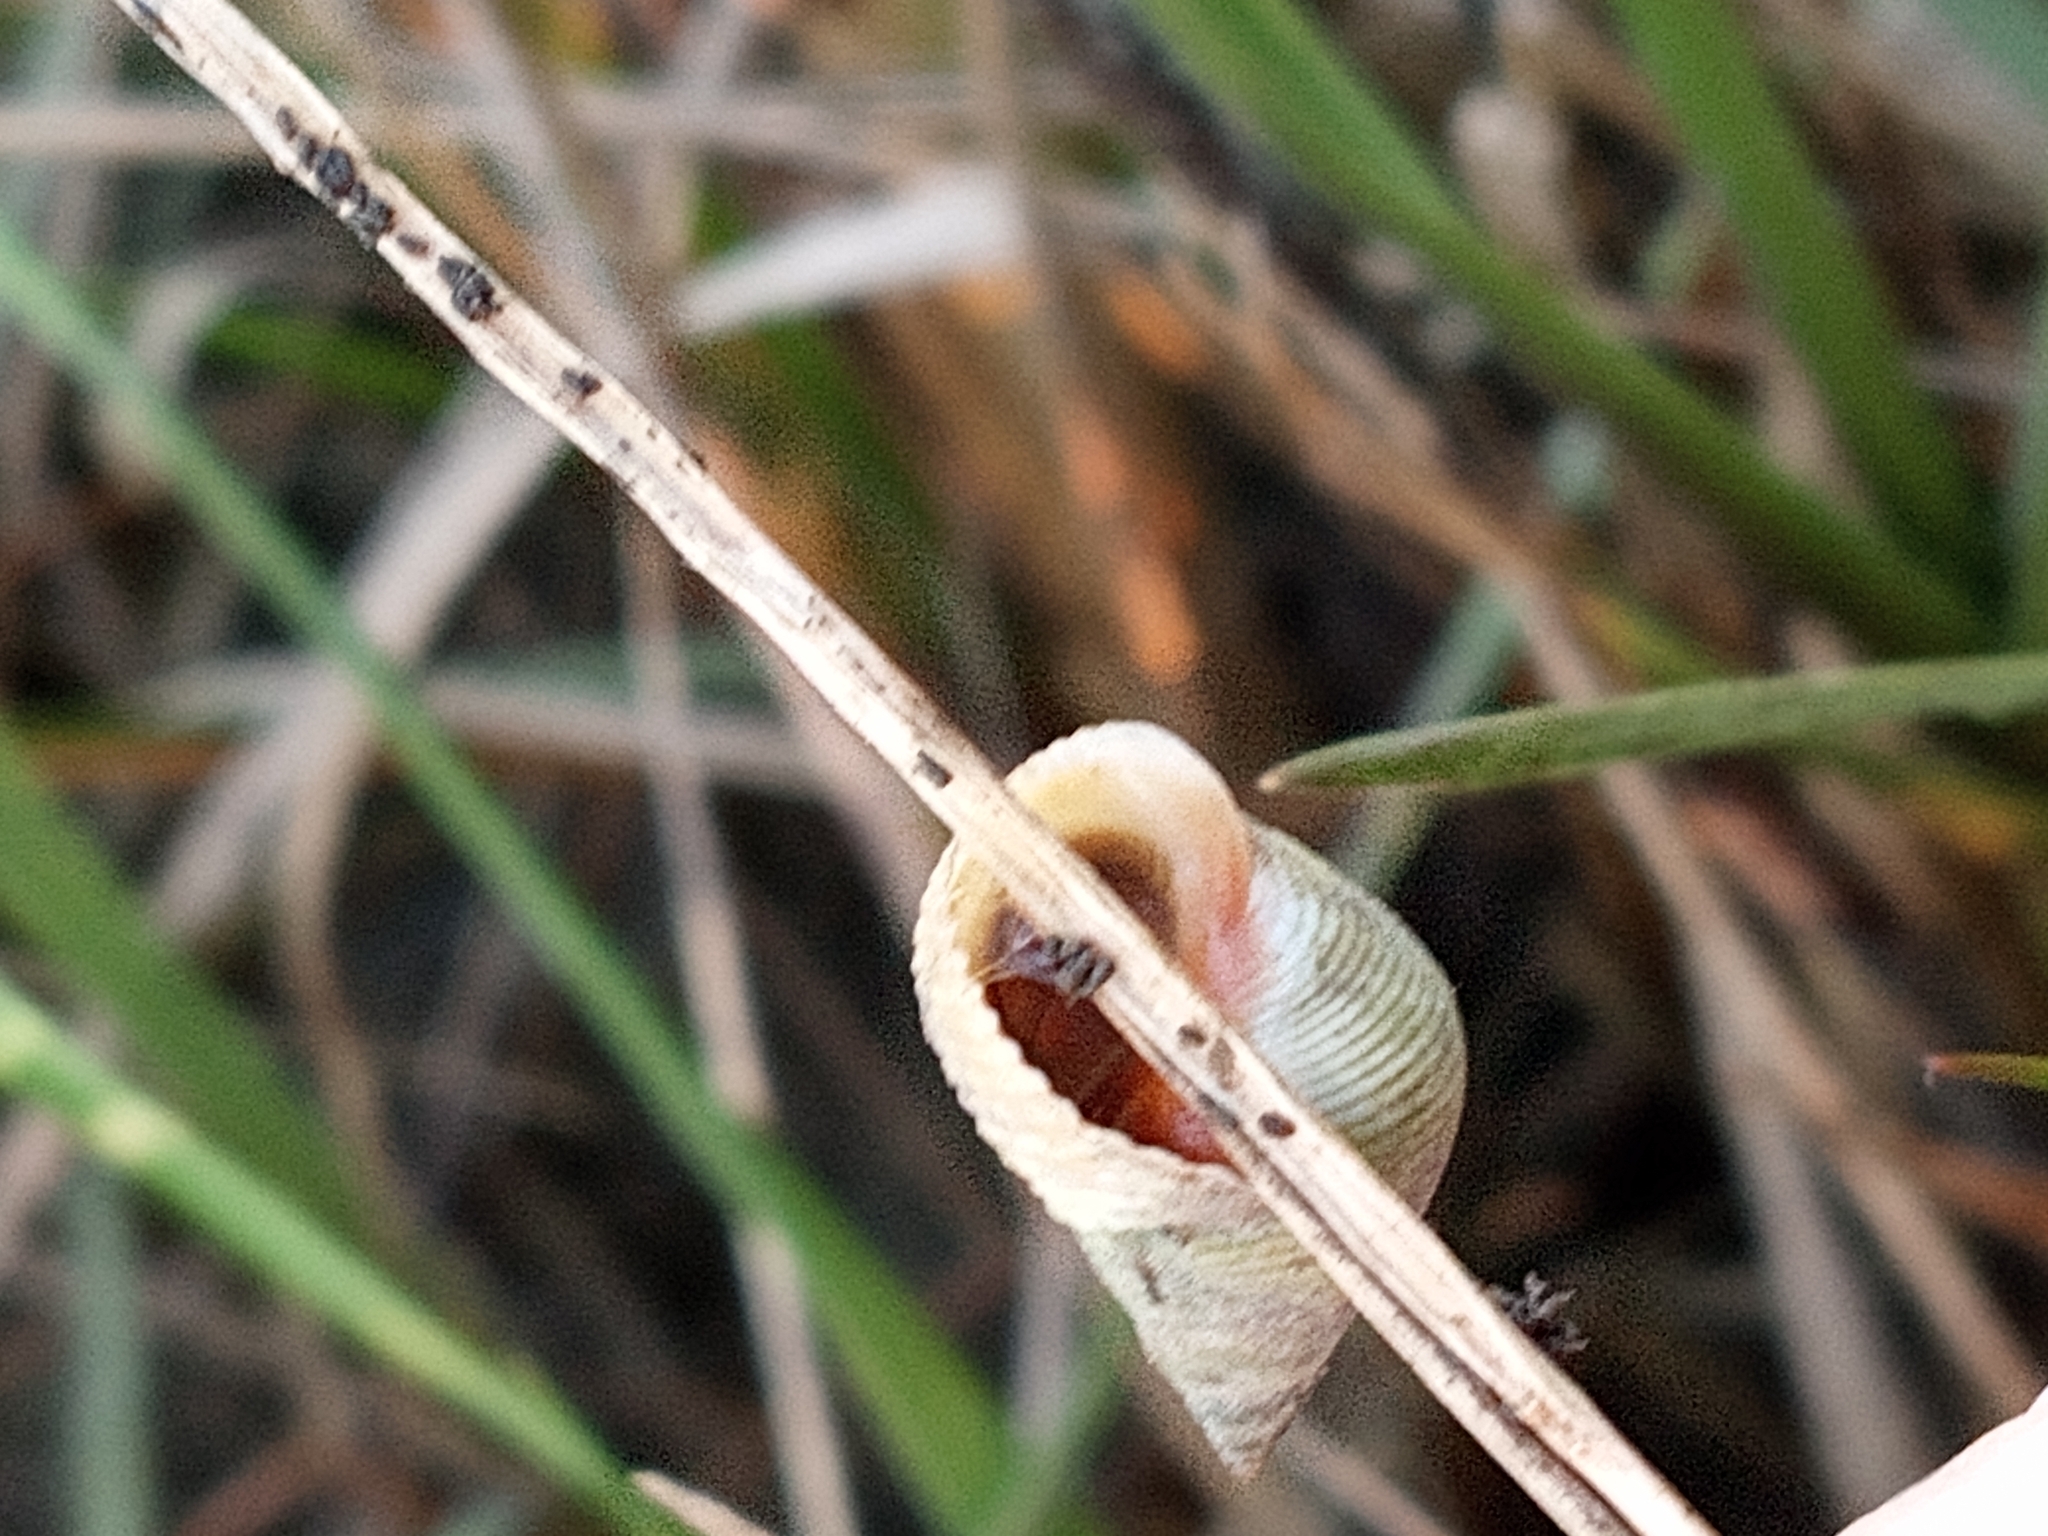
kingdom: Animalia
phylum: Mollusca
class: Gastropoda
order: Littorinimorpha
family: Littorinidae
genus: Littoraria
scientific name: Littoraria irrorata
